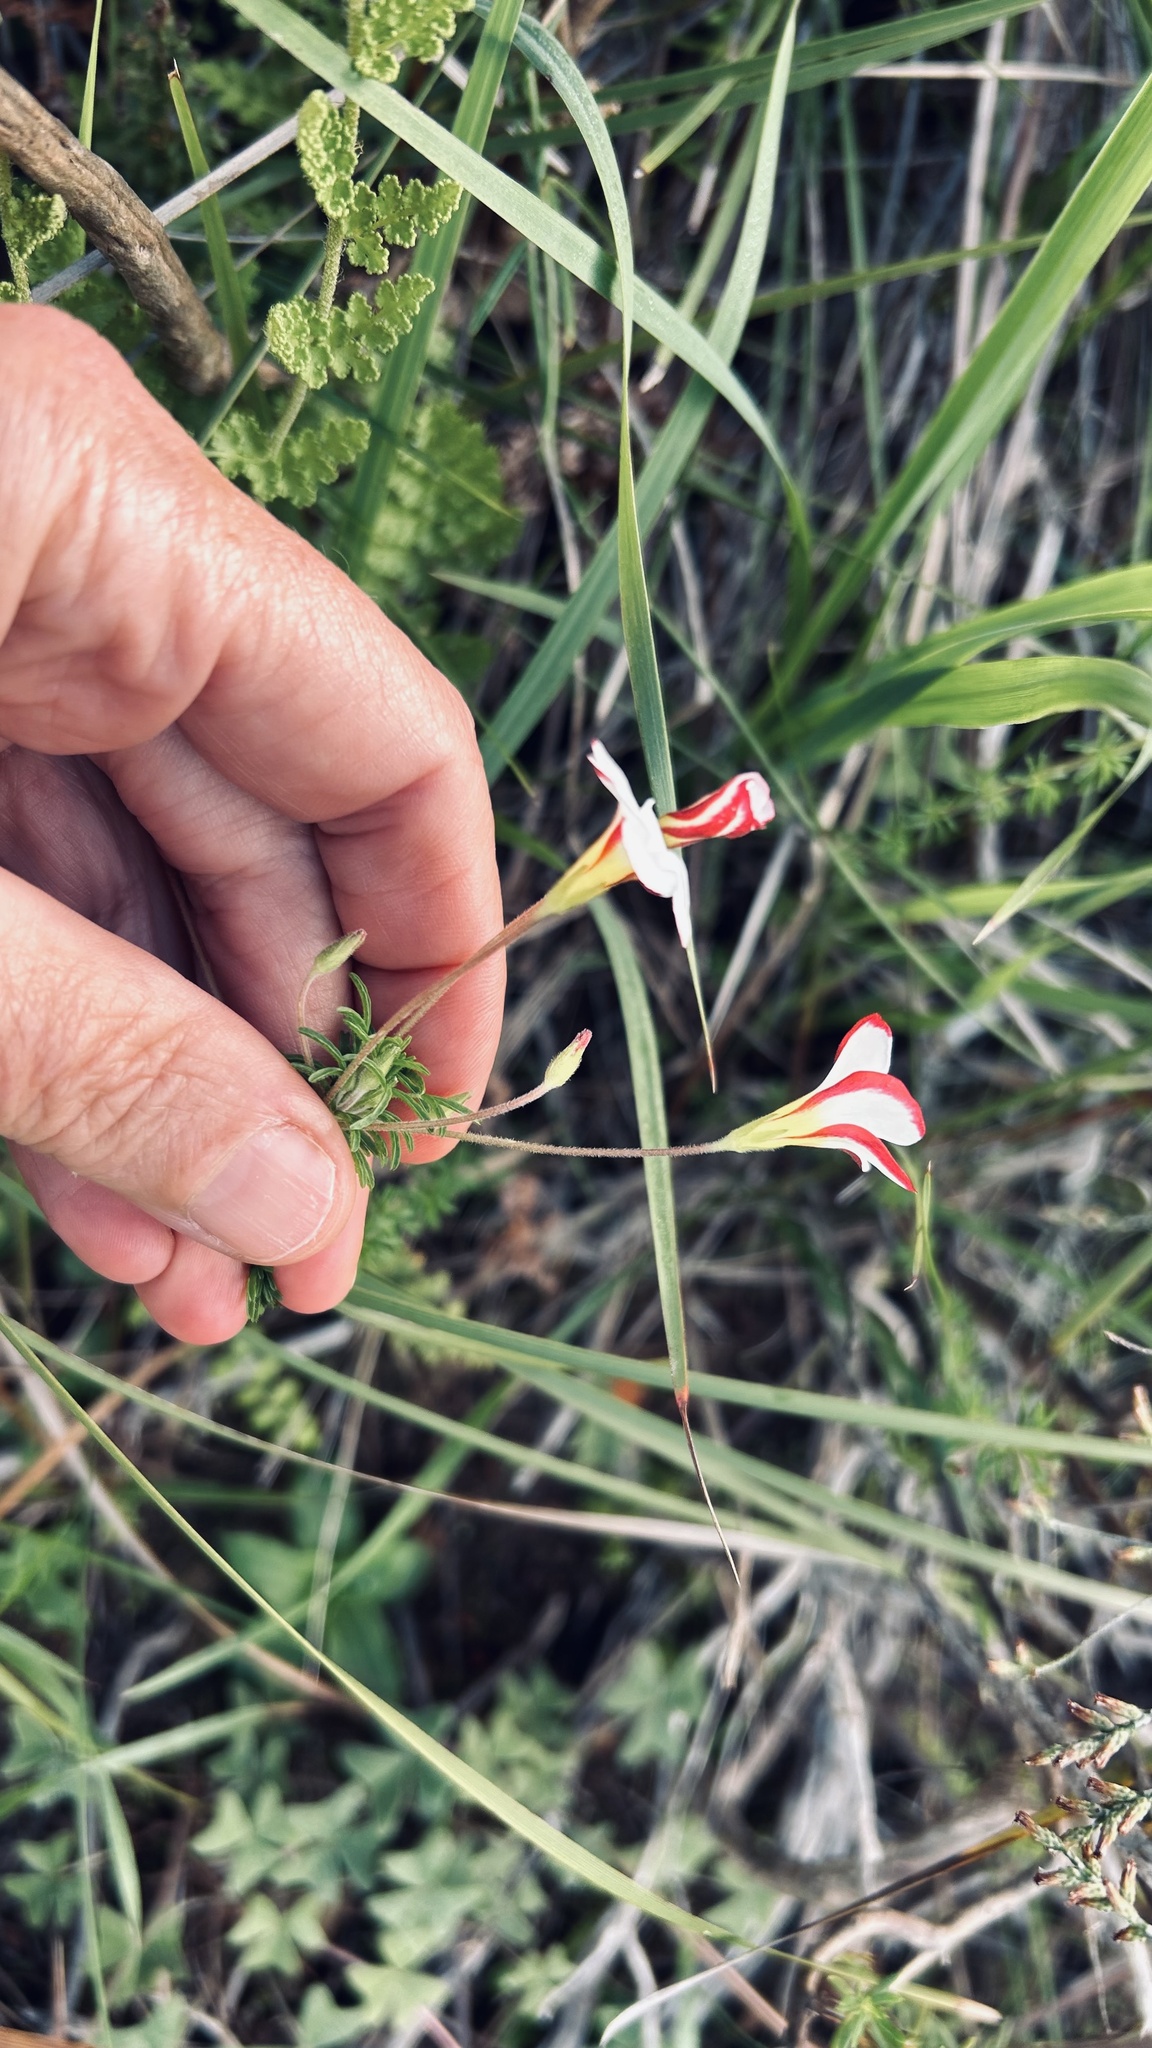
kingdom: Plantae
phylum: Tracheophyta
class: Magnoliopsida
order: Oxalidales
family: Oxalidaceae
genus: Oxalis
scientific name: Oxalis tenuifolia
